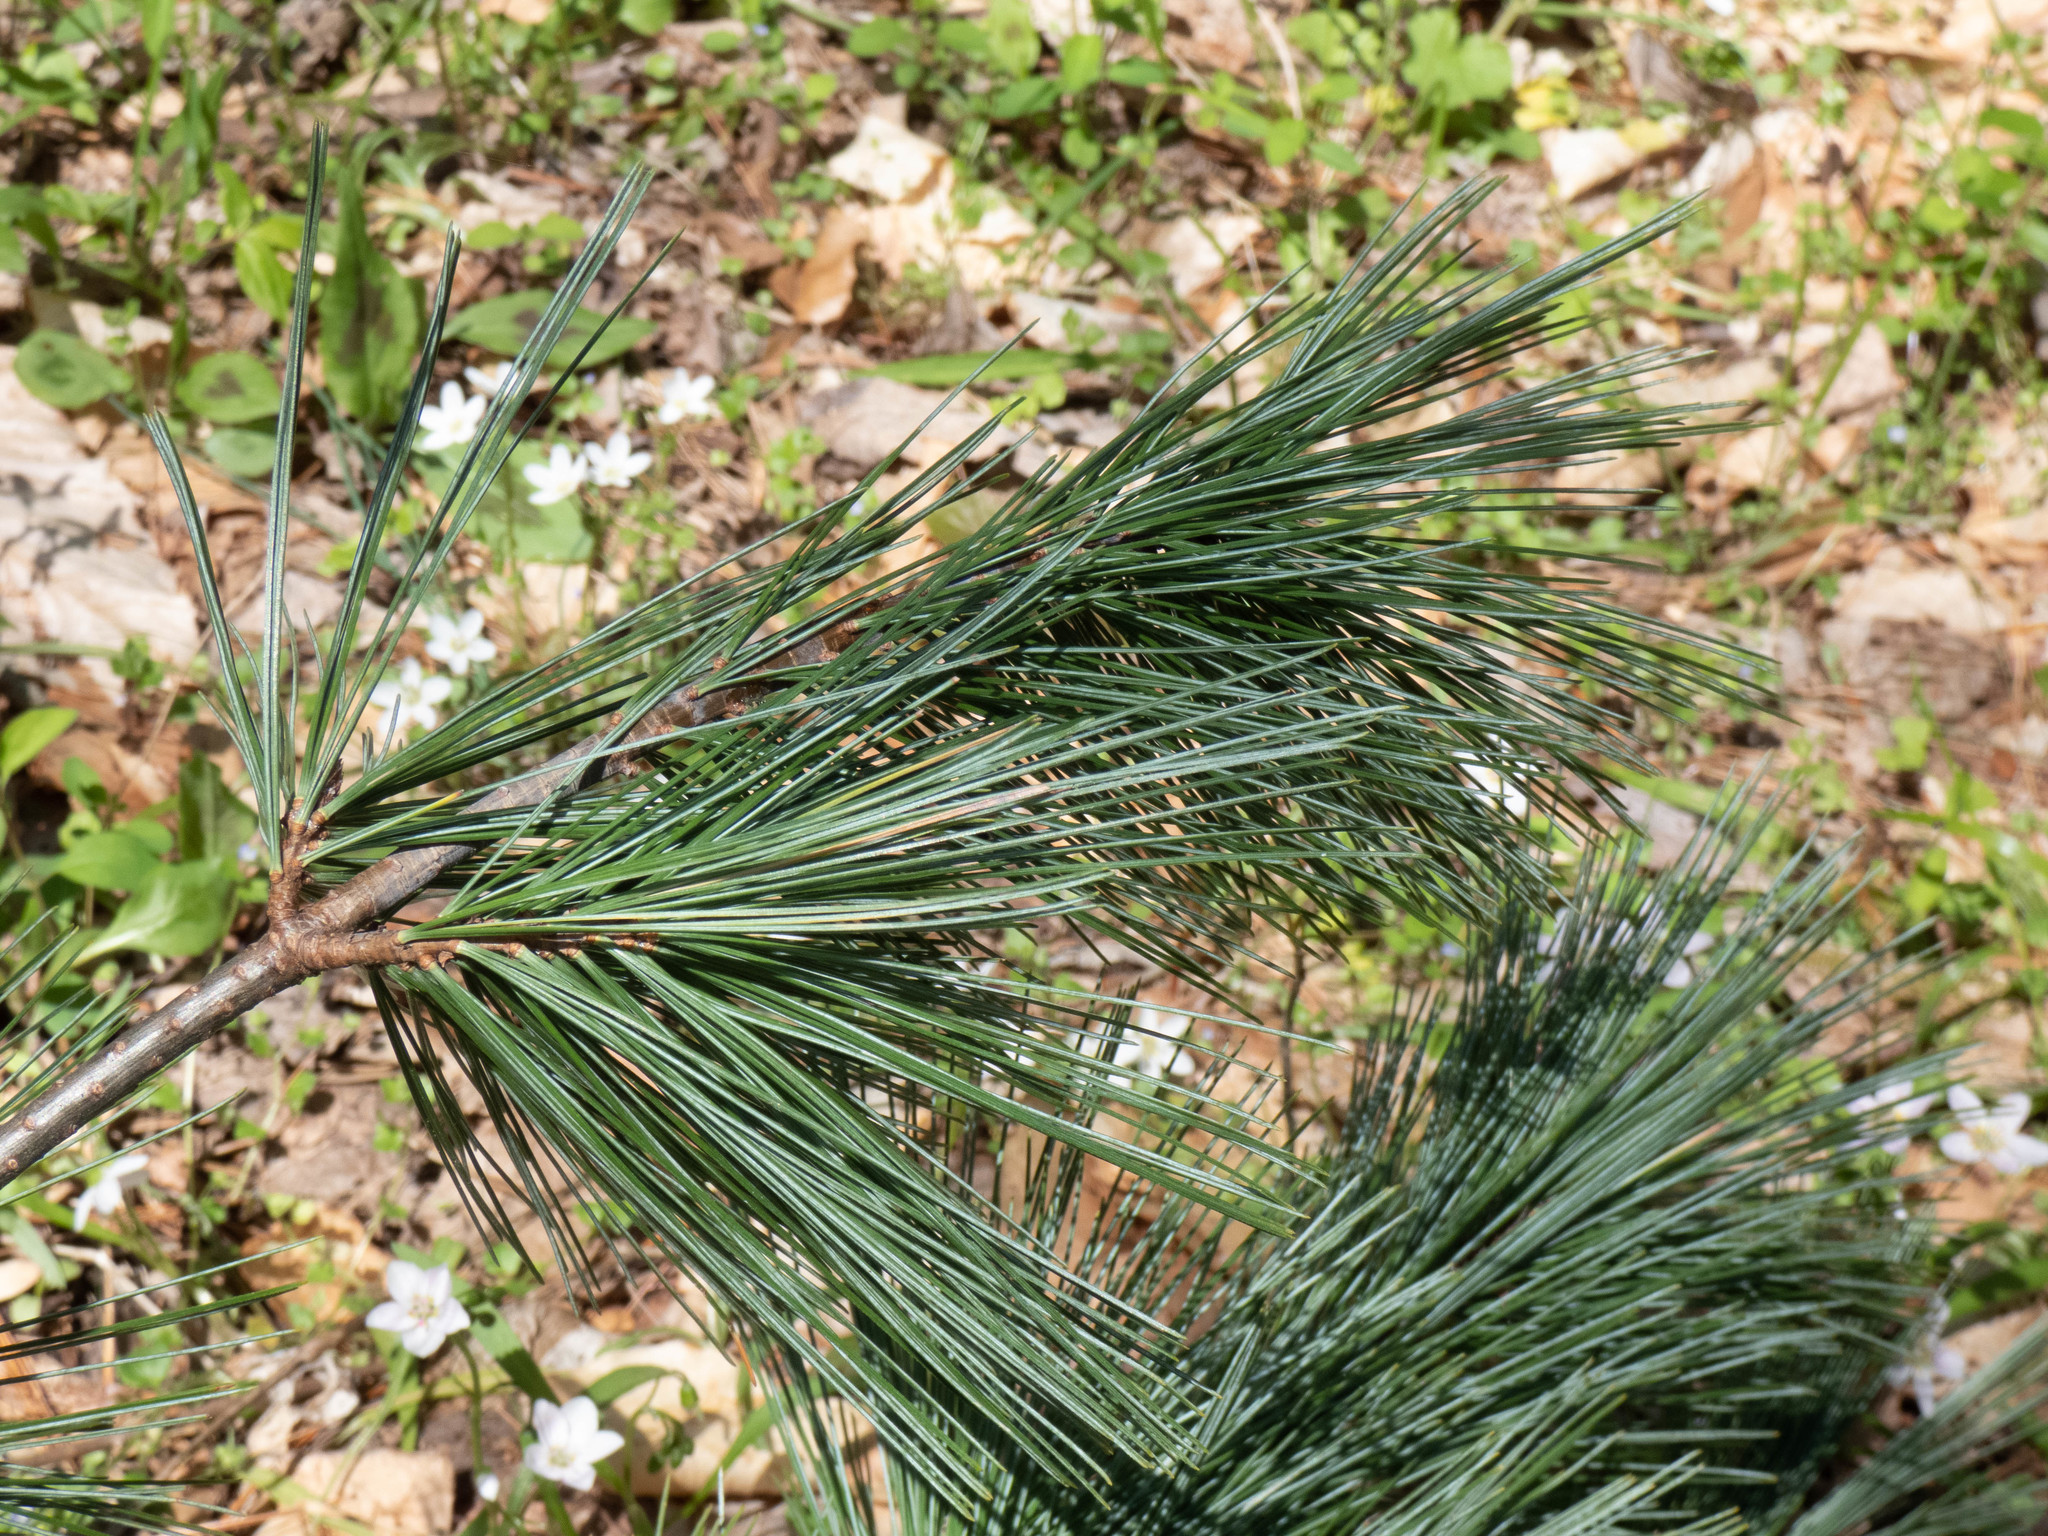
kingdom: Plantae
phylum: Tracheophyta
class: Pinopsida
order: Pinales
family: Pinaceae
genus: Pinus
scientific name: Pinus strobus
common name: Weymouth pine
